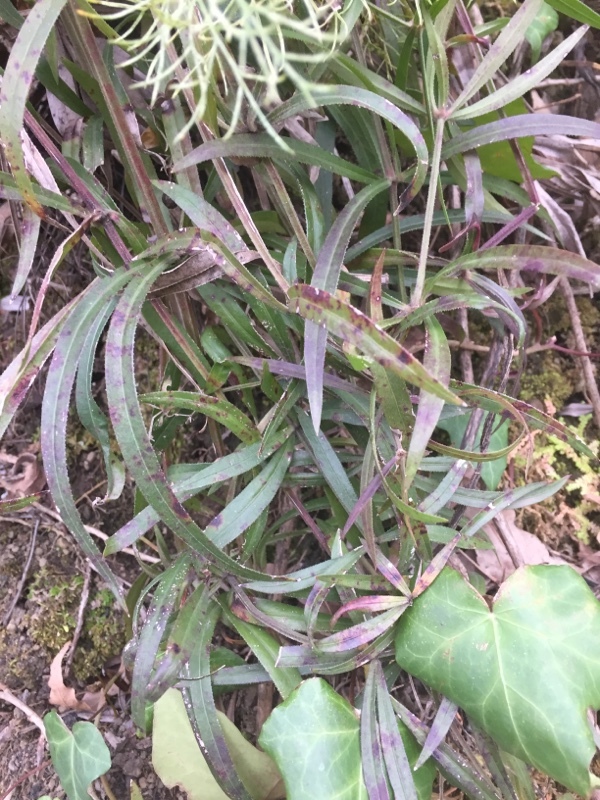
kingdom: Plantae
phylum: Tracheophyta
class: Magnoliopsida
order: Gentianales
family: Rubiaceae
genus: Rubia
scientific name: Rubia peregrina
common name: Wild madder
